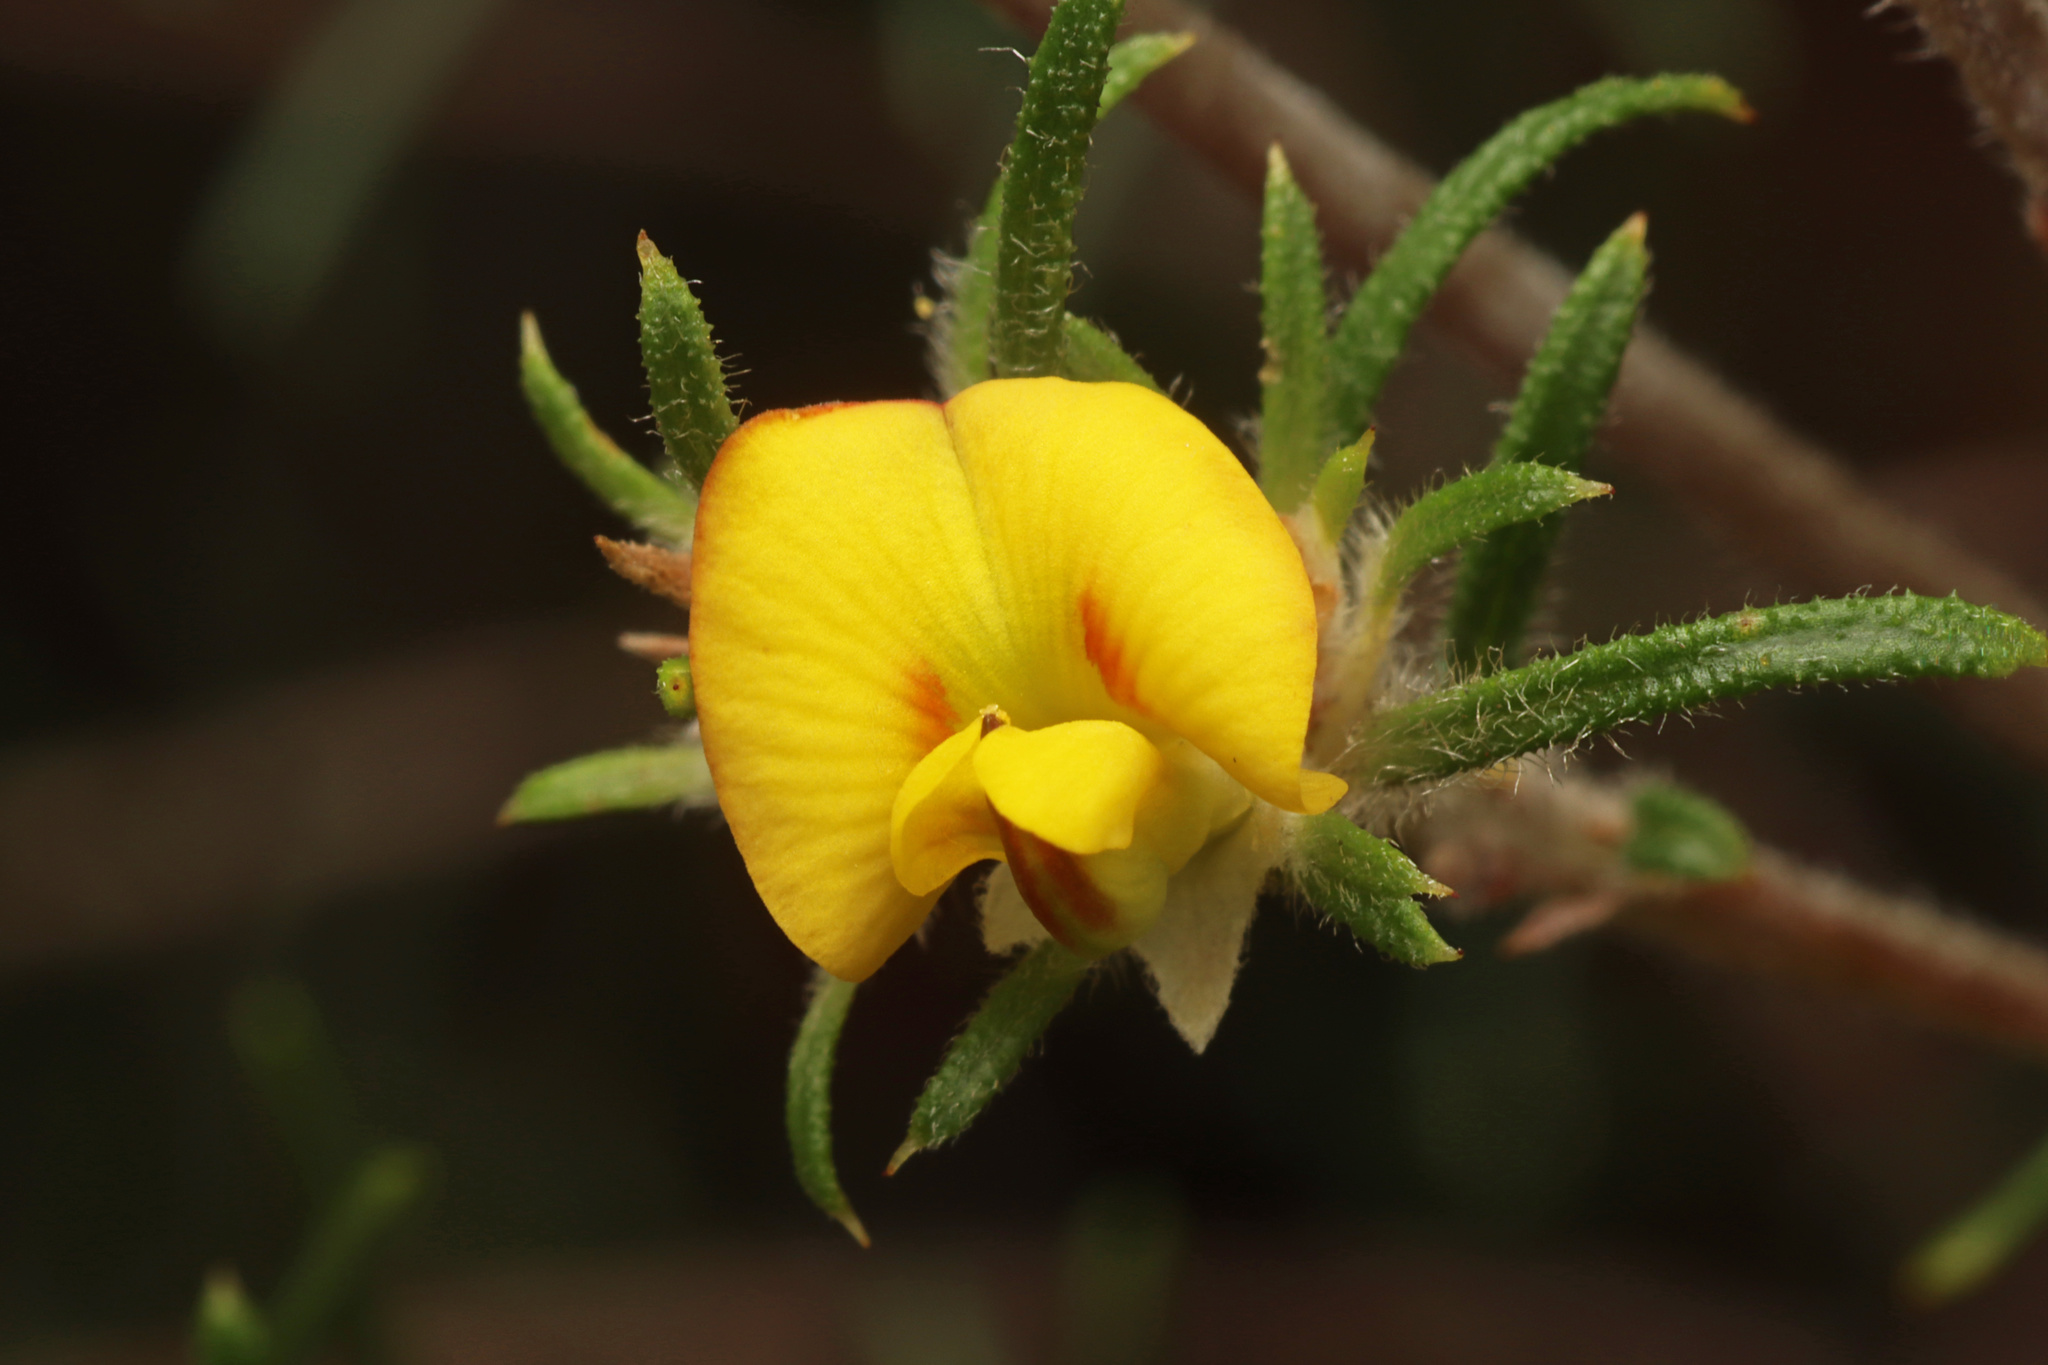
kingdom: Plantae
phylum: Tracheophyta
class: Magnoliopsida
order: Fabales
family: Fabaceae
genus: Phyllota
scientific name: Phyllota pleurandroides
